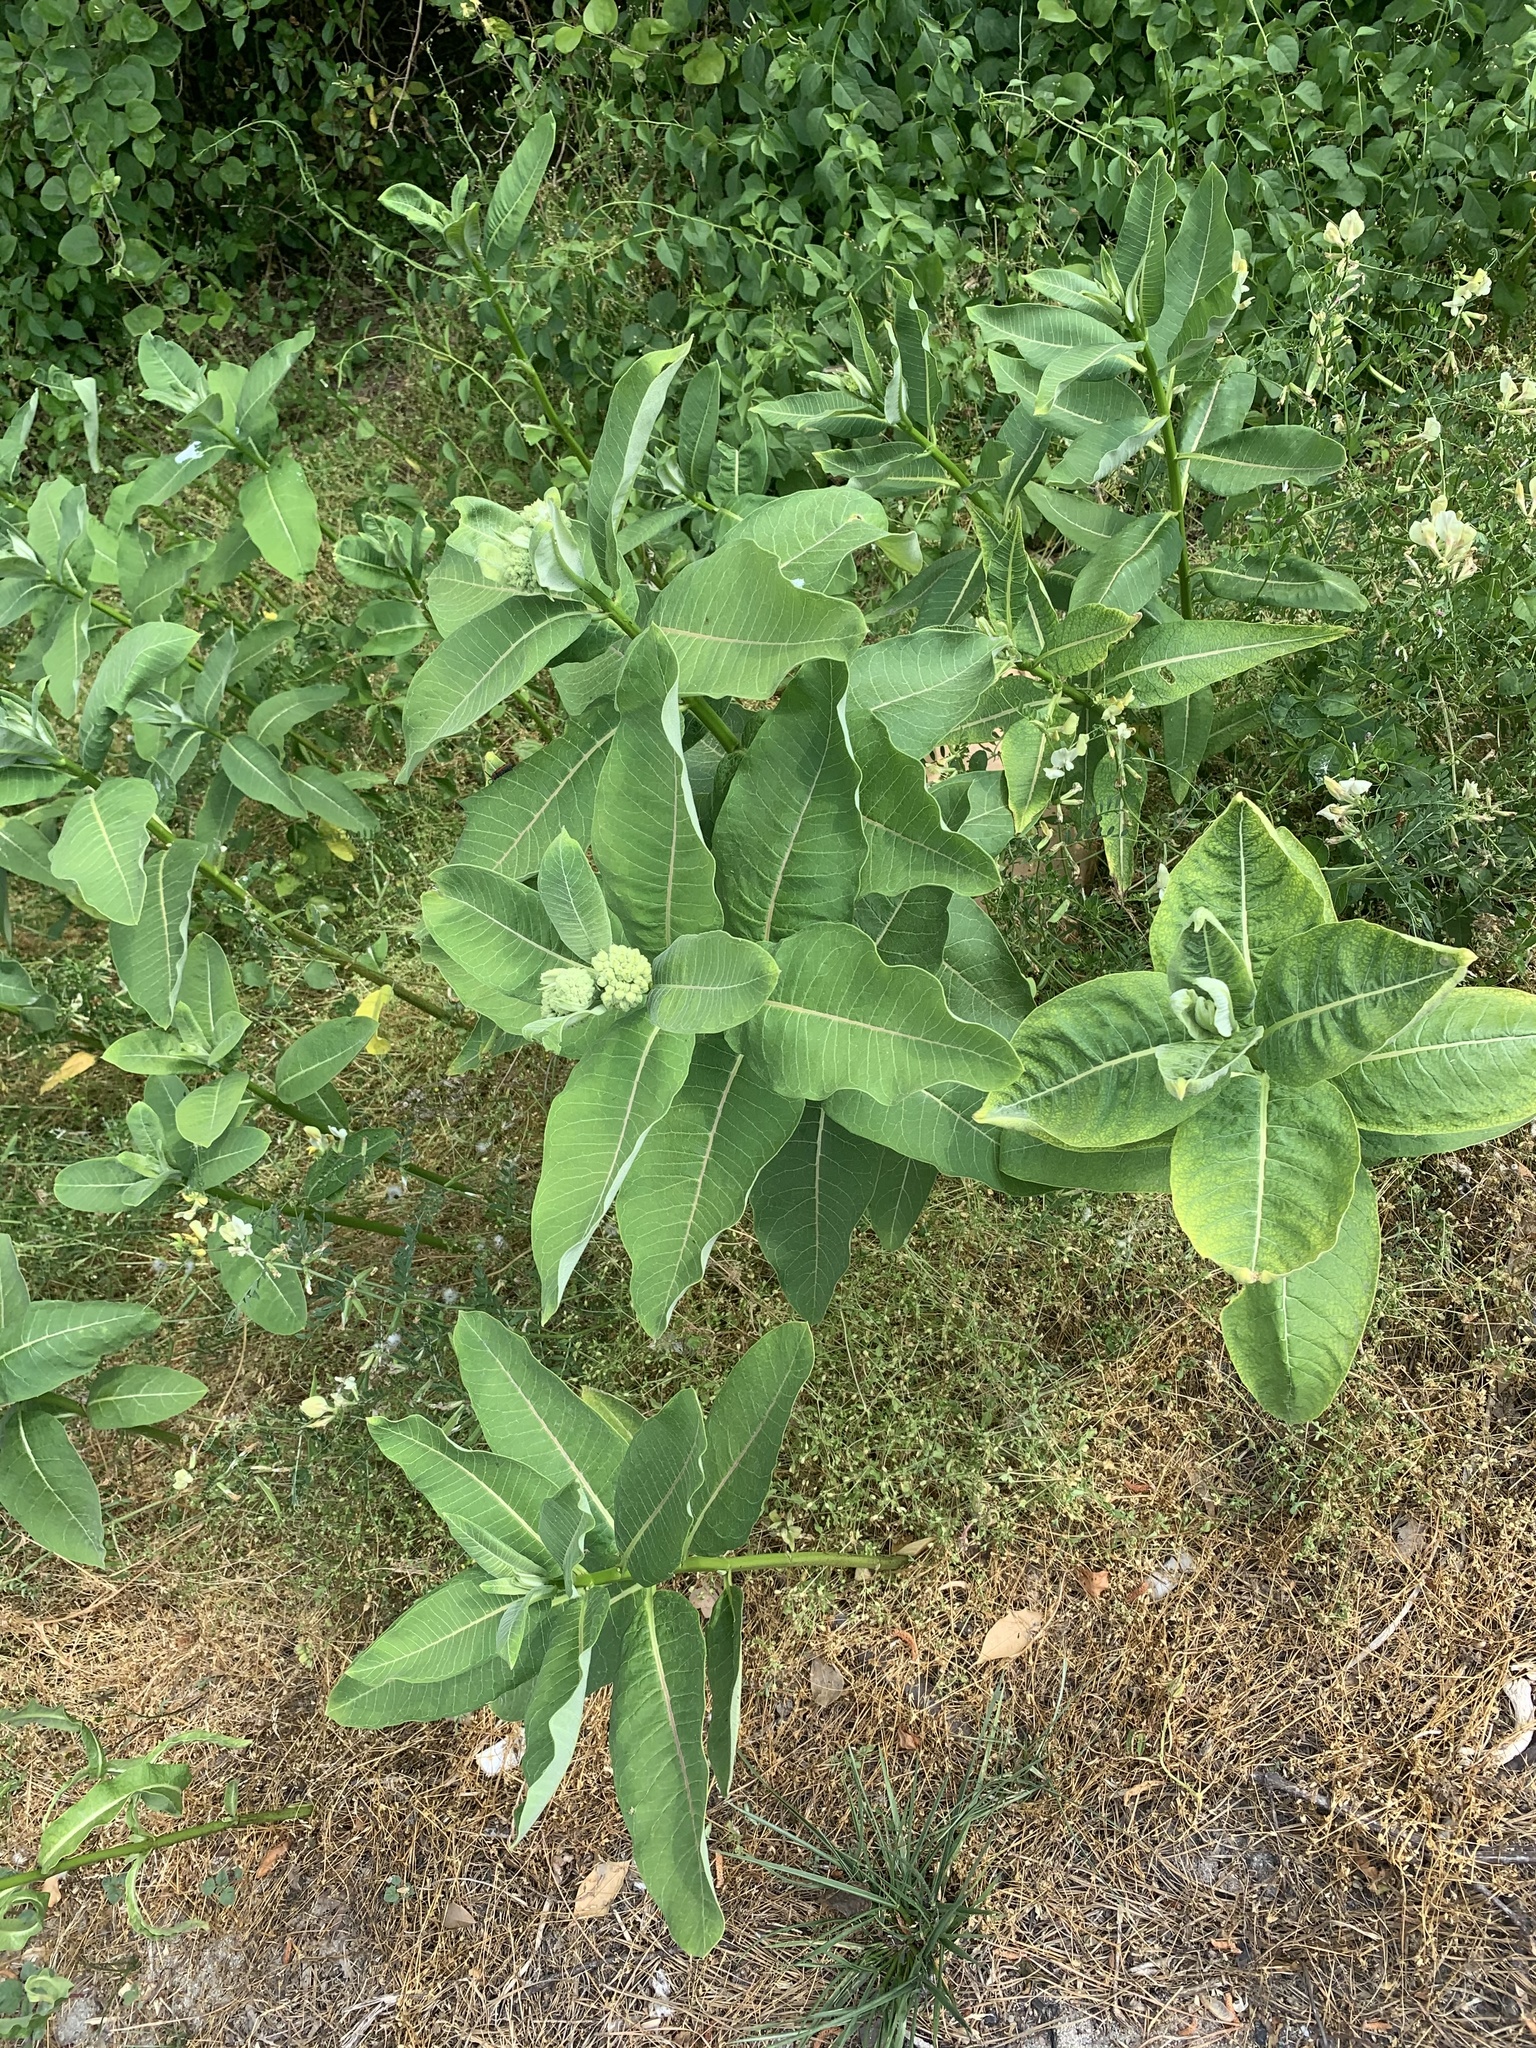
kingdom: Plantae
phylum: Tracheophyta
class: Magnoliopsida
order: Gentianales
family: Apocynaceae
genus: Asclepias
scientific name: Asclepias syriaca
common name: Common milkweed
